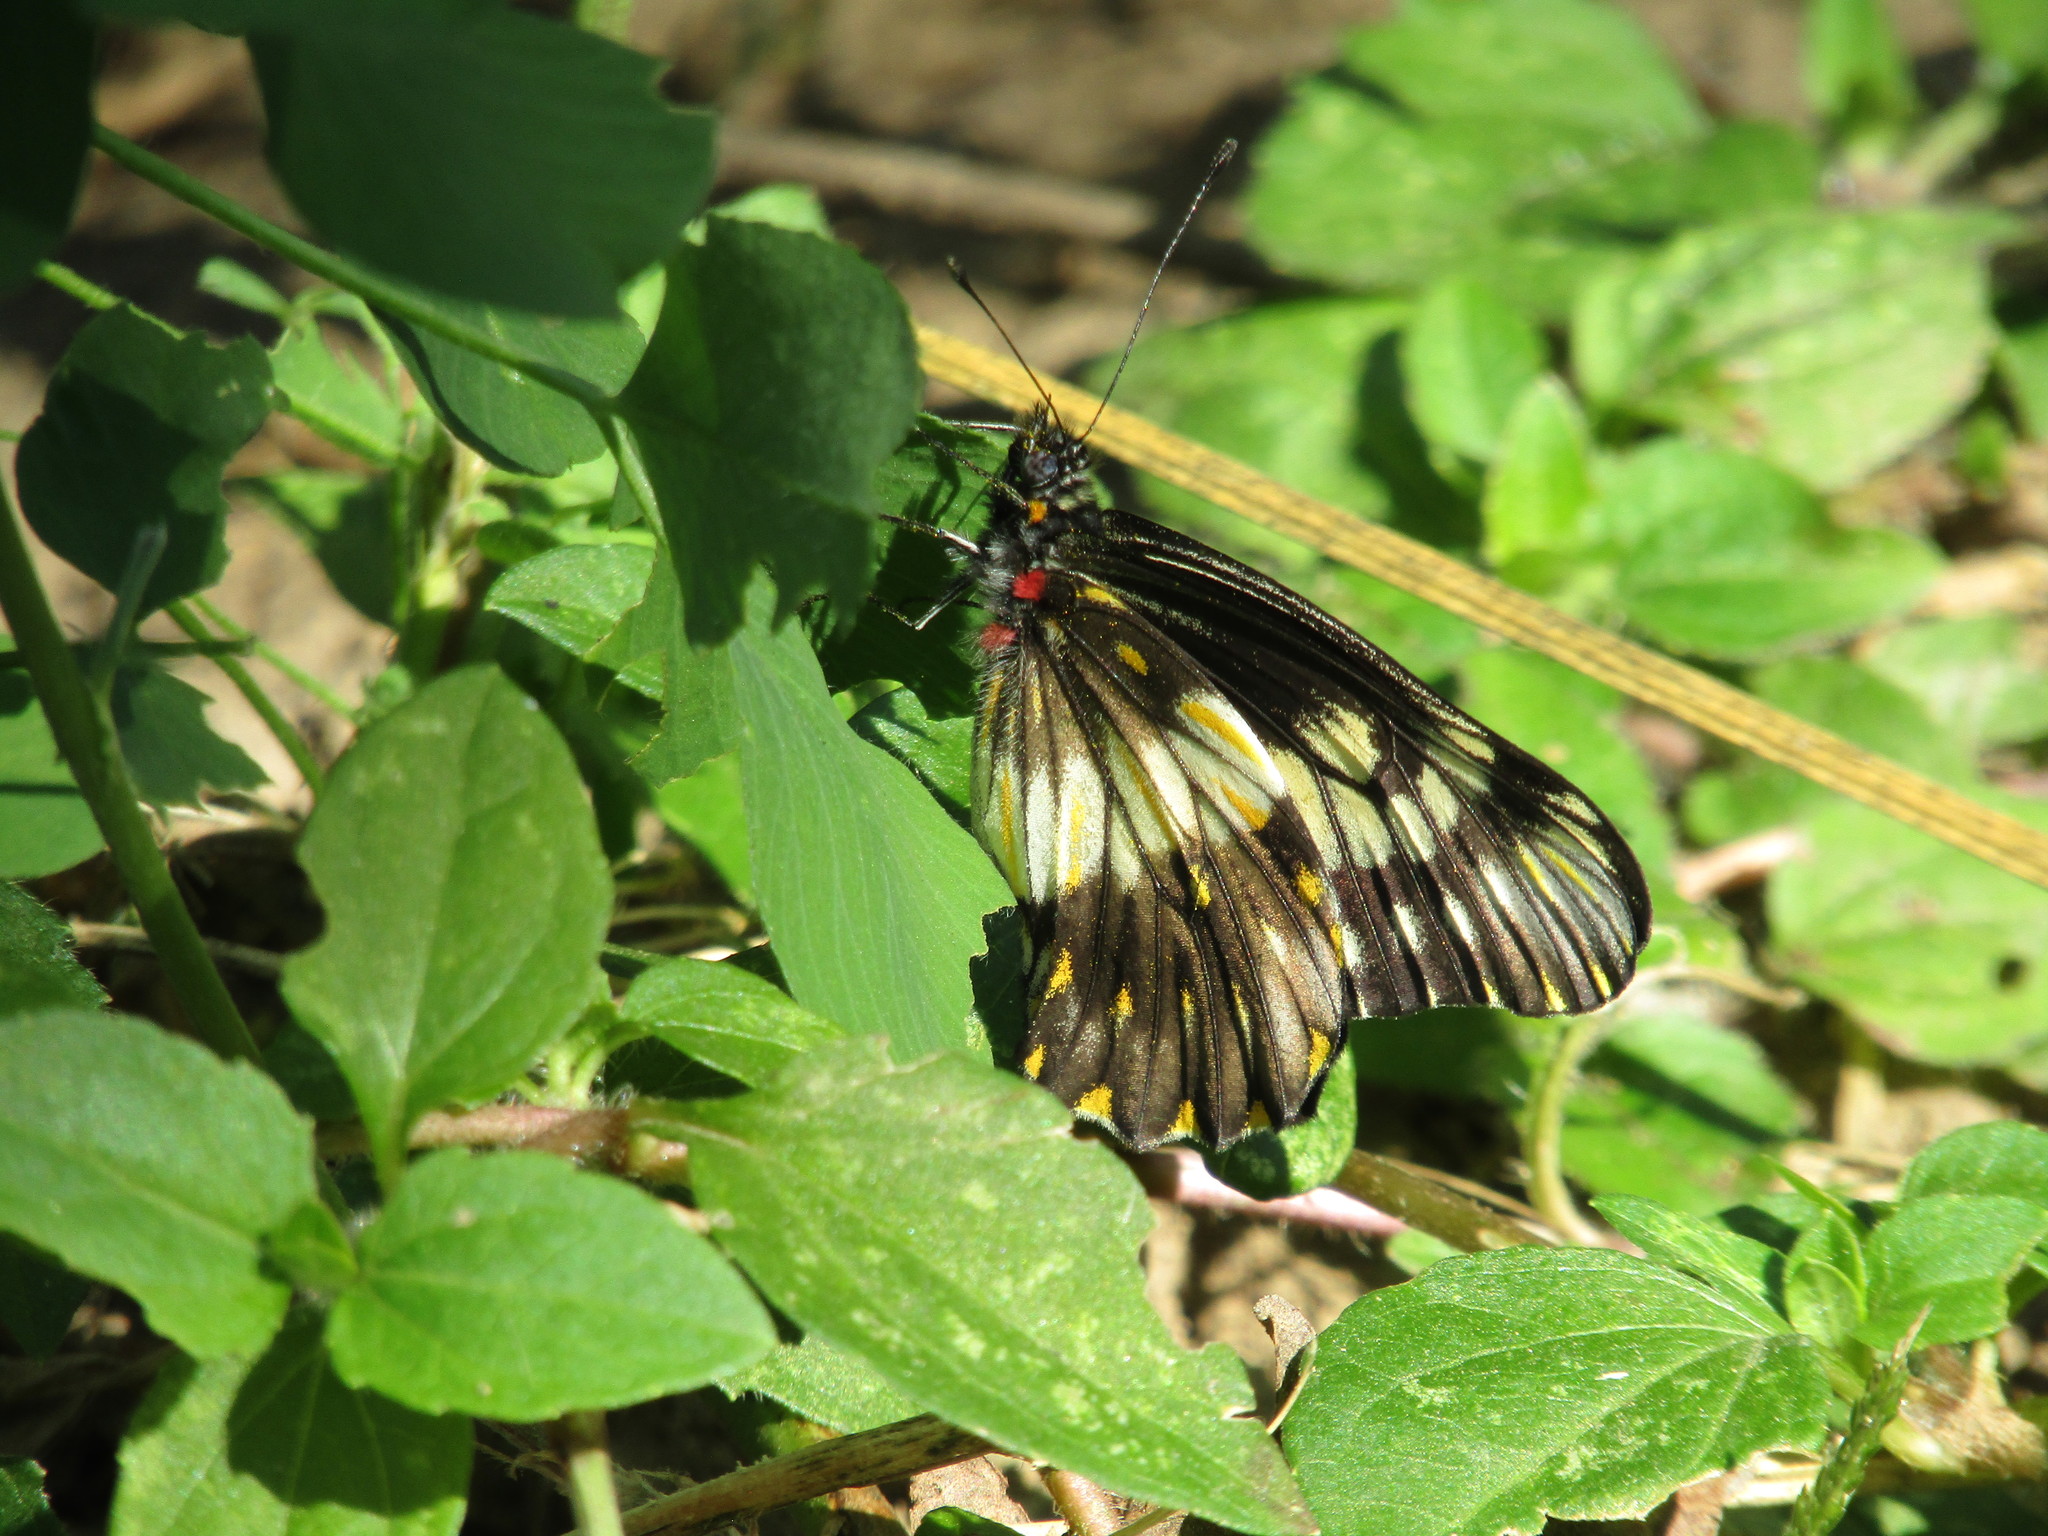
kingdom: Animalia
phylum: Arthropoda
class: Insecta
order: Lepidoptera
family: Pieridae
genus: Archonias
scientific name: Archonias nimbice
